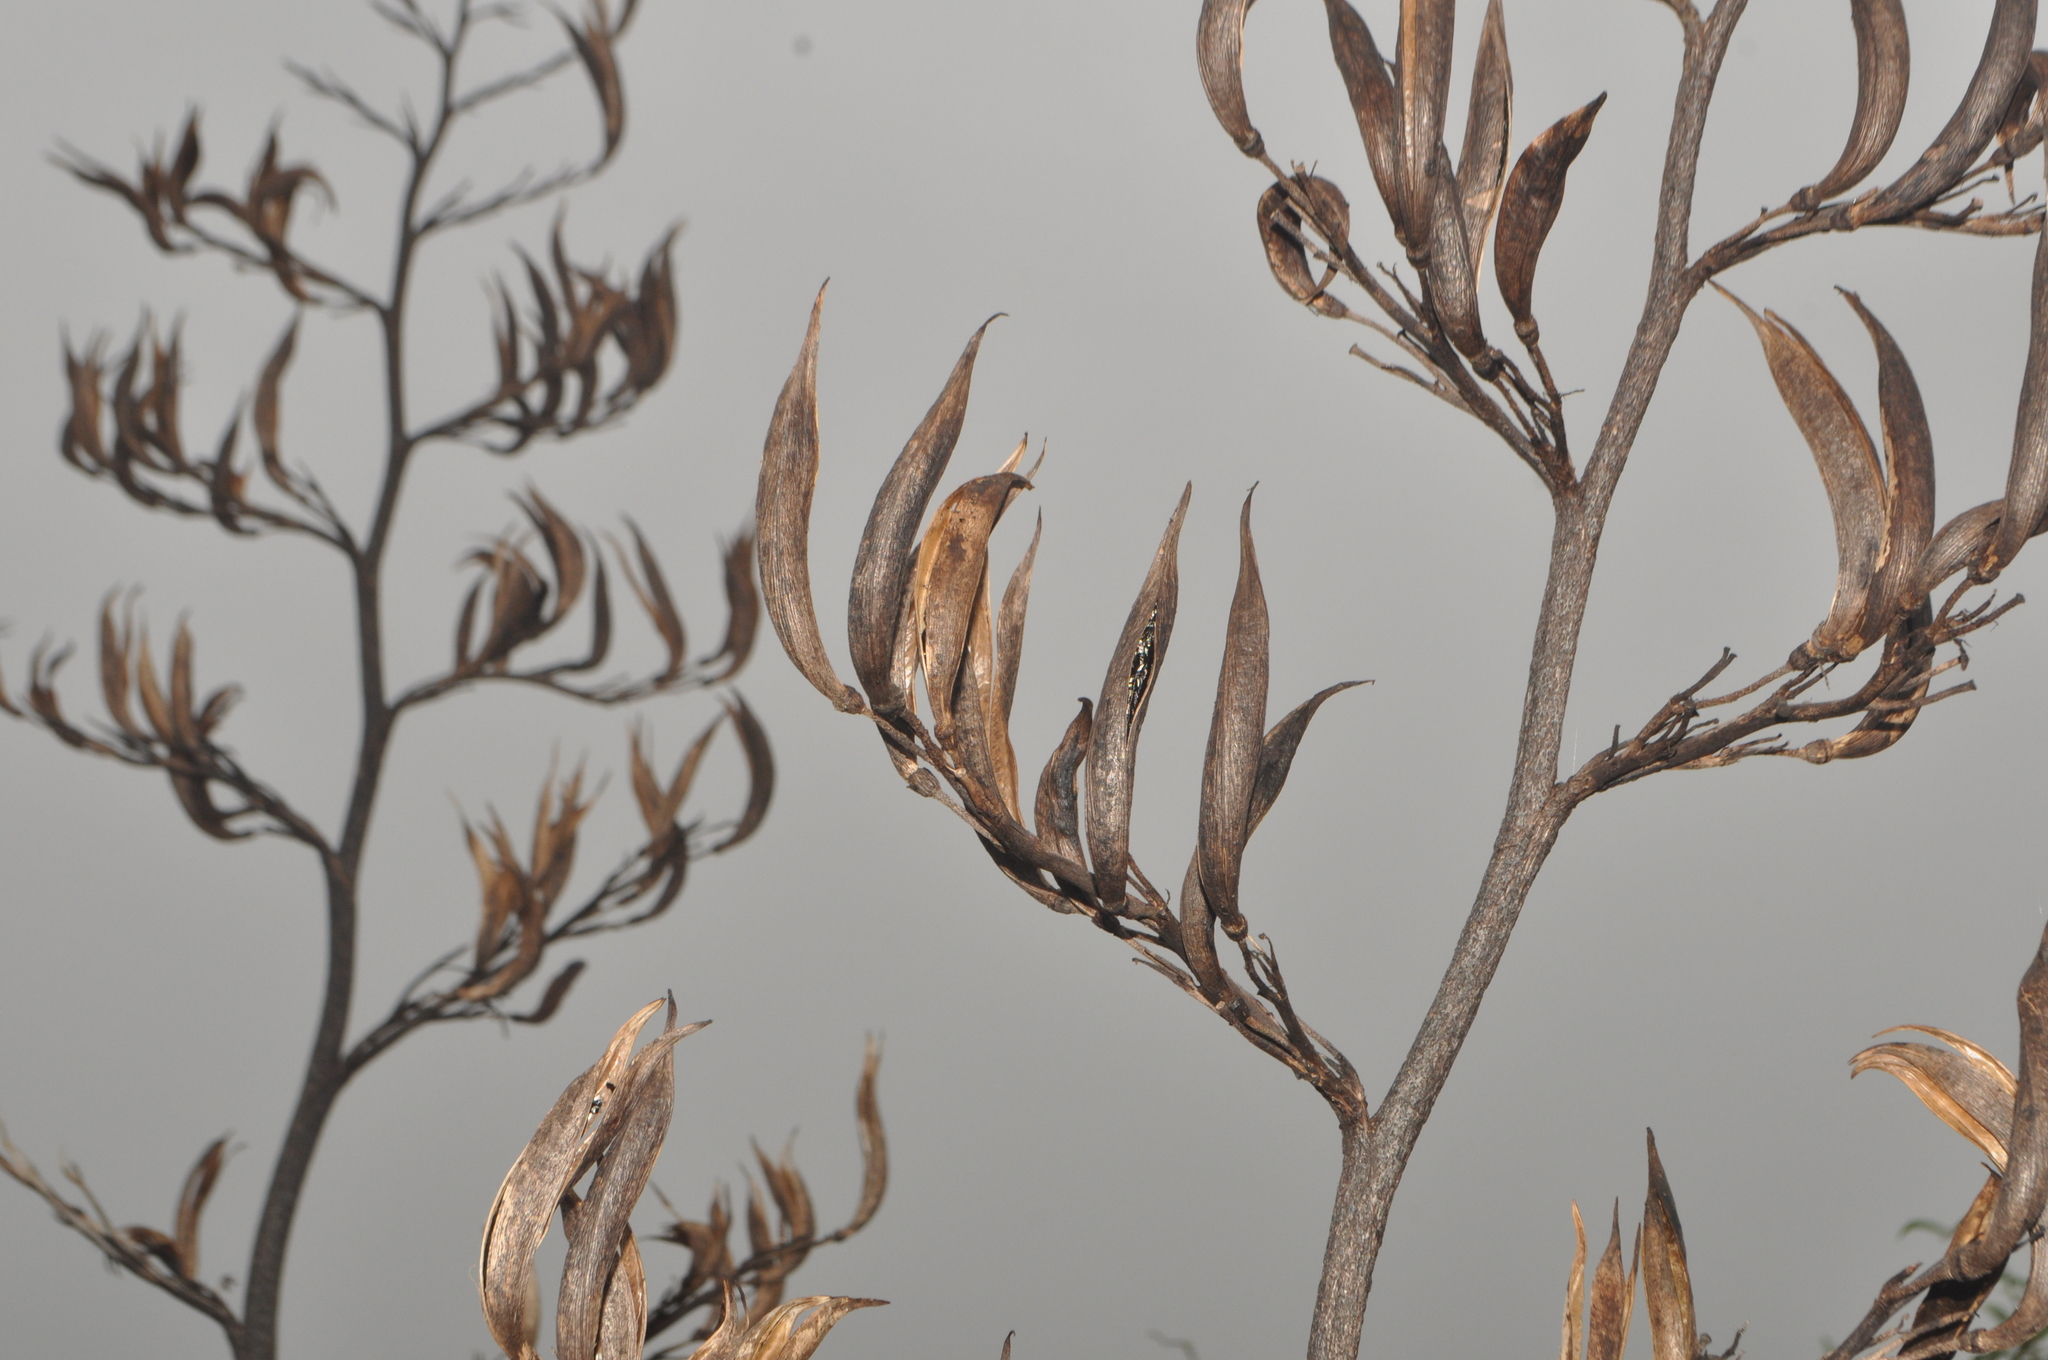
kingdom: Plantae
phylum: Tracheophyta
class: Liliopsida
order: Asparagales
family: Asphodelaceae
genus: Phormium
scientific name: Phormium tenax
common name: New zealand flax
